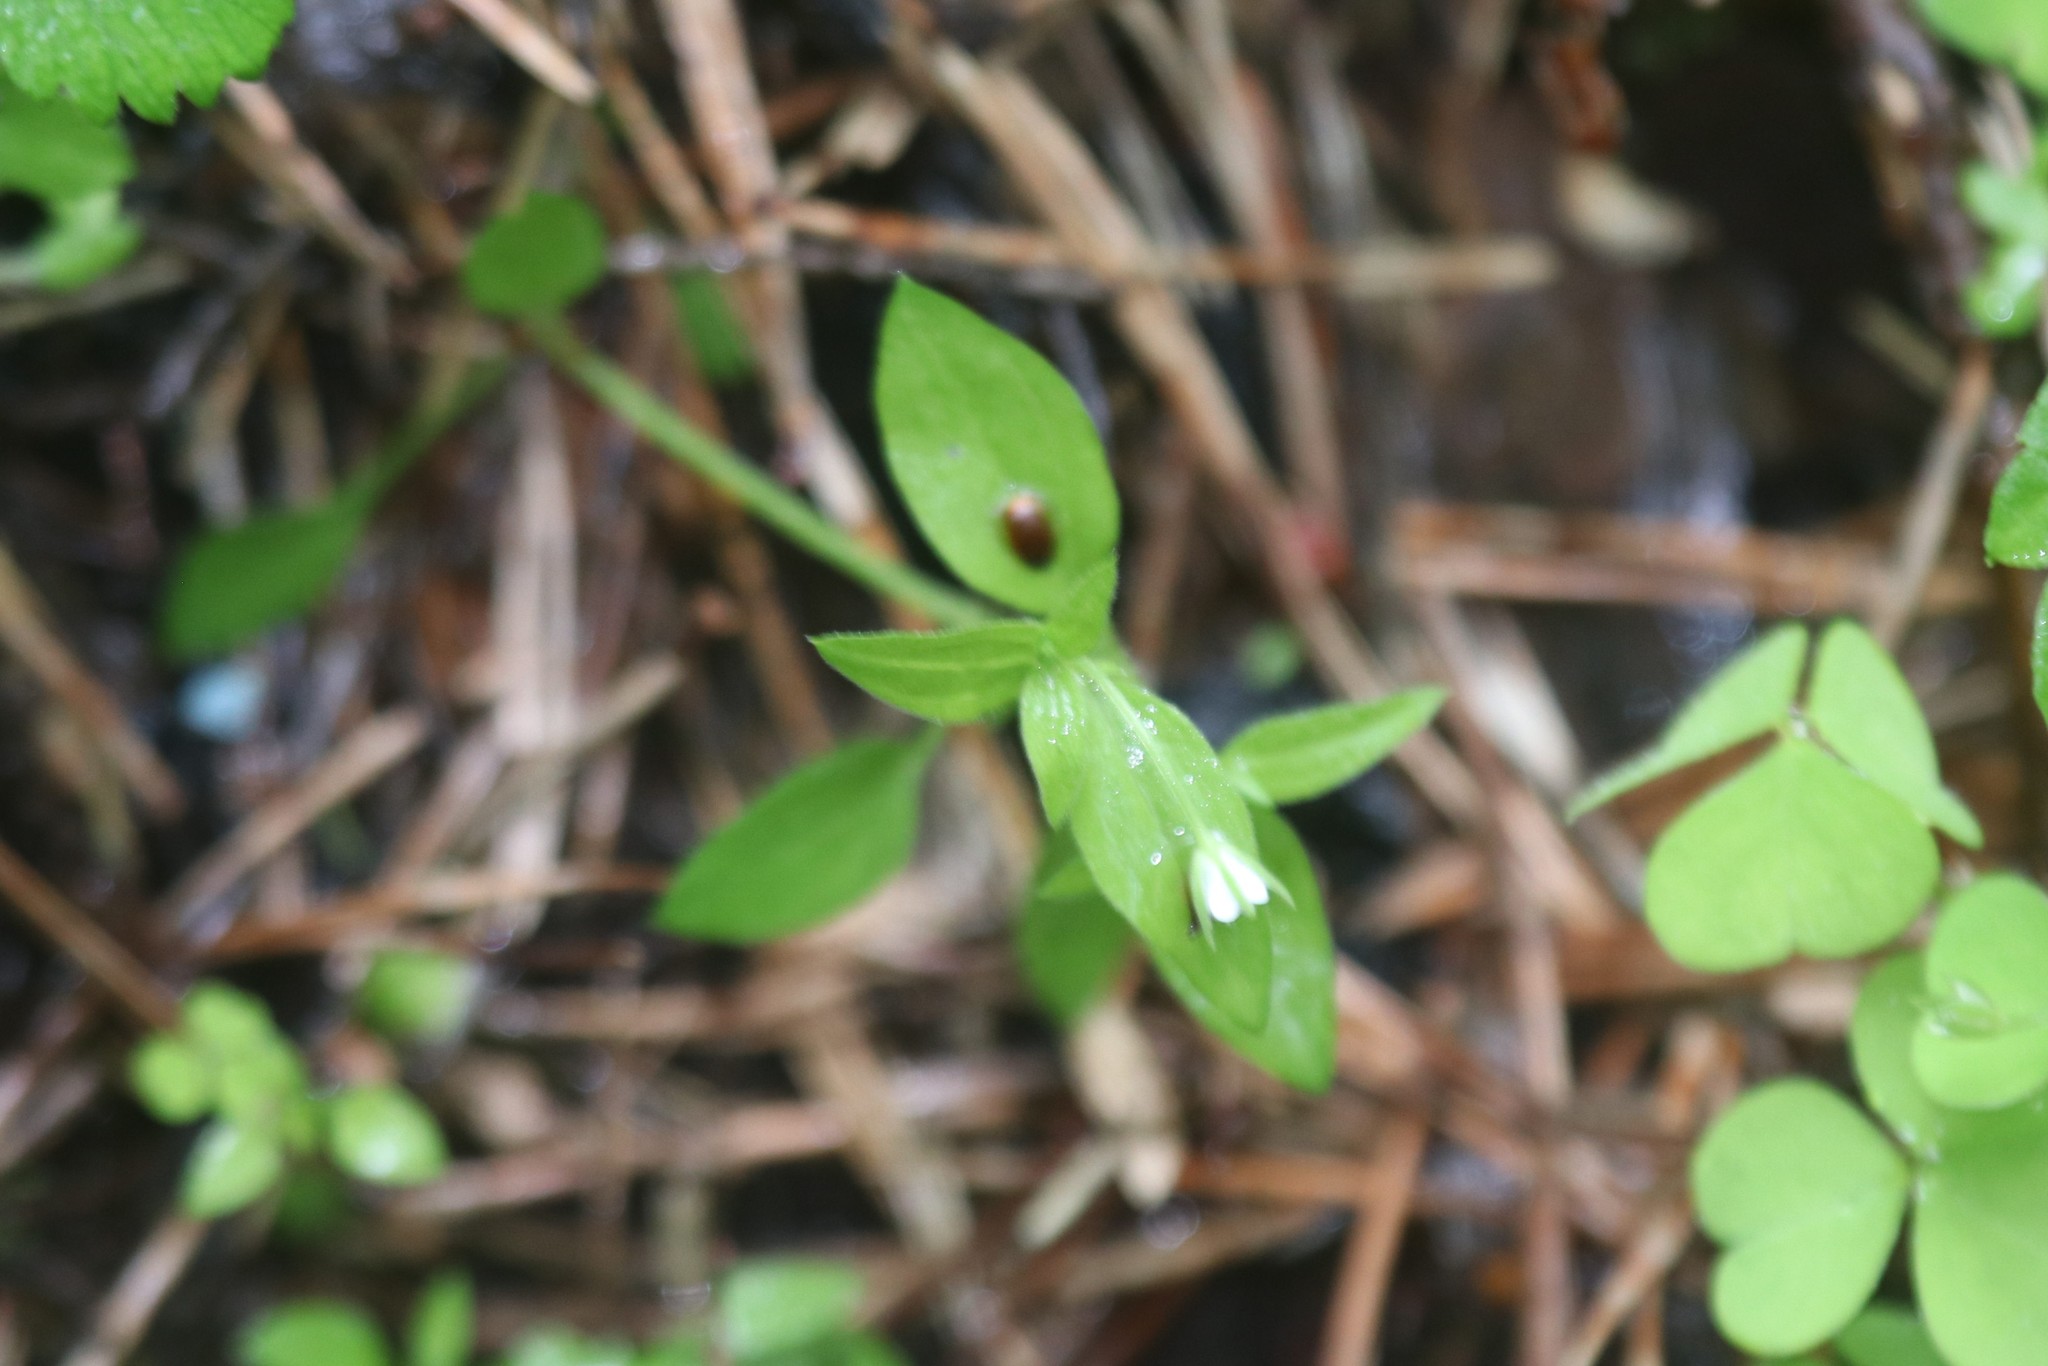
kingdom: Plantae
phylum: Tracheophyta
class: Magnoliopsida
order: Caryophyllales
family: Caryophyllaceae
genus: Moehringia
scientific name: Moehringia trinervia
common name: Three-nerved sandwort
